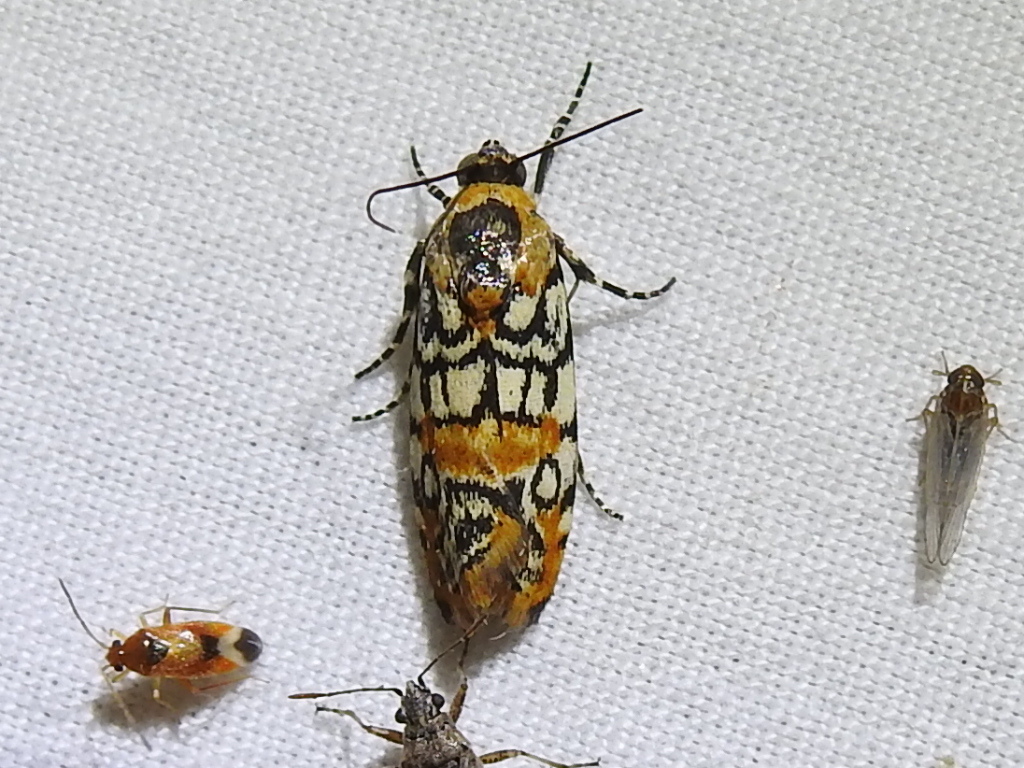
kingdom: Animalia
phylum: Arthropoda
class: Insecta
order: Lepidoptera
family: Noctuidae
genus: Spragueia
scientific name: Spragueia guttata
